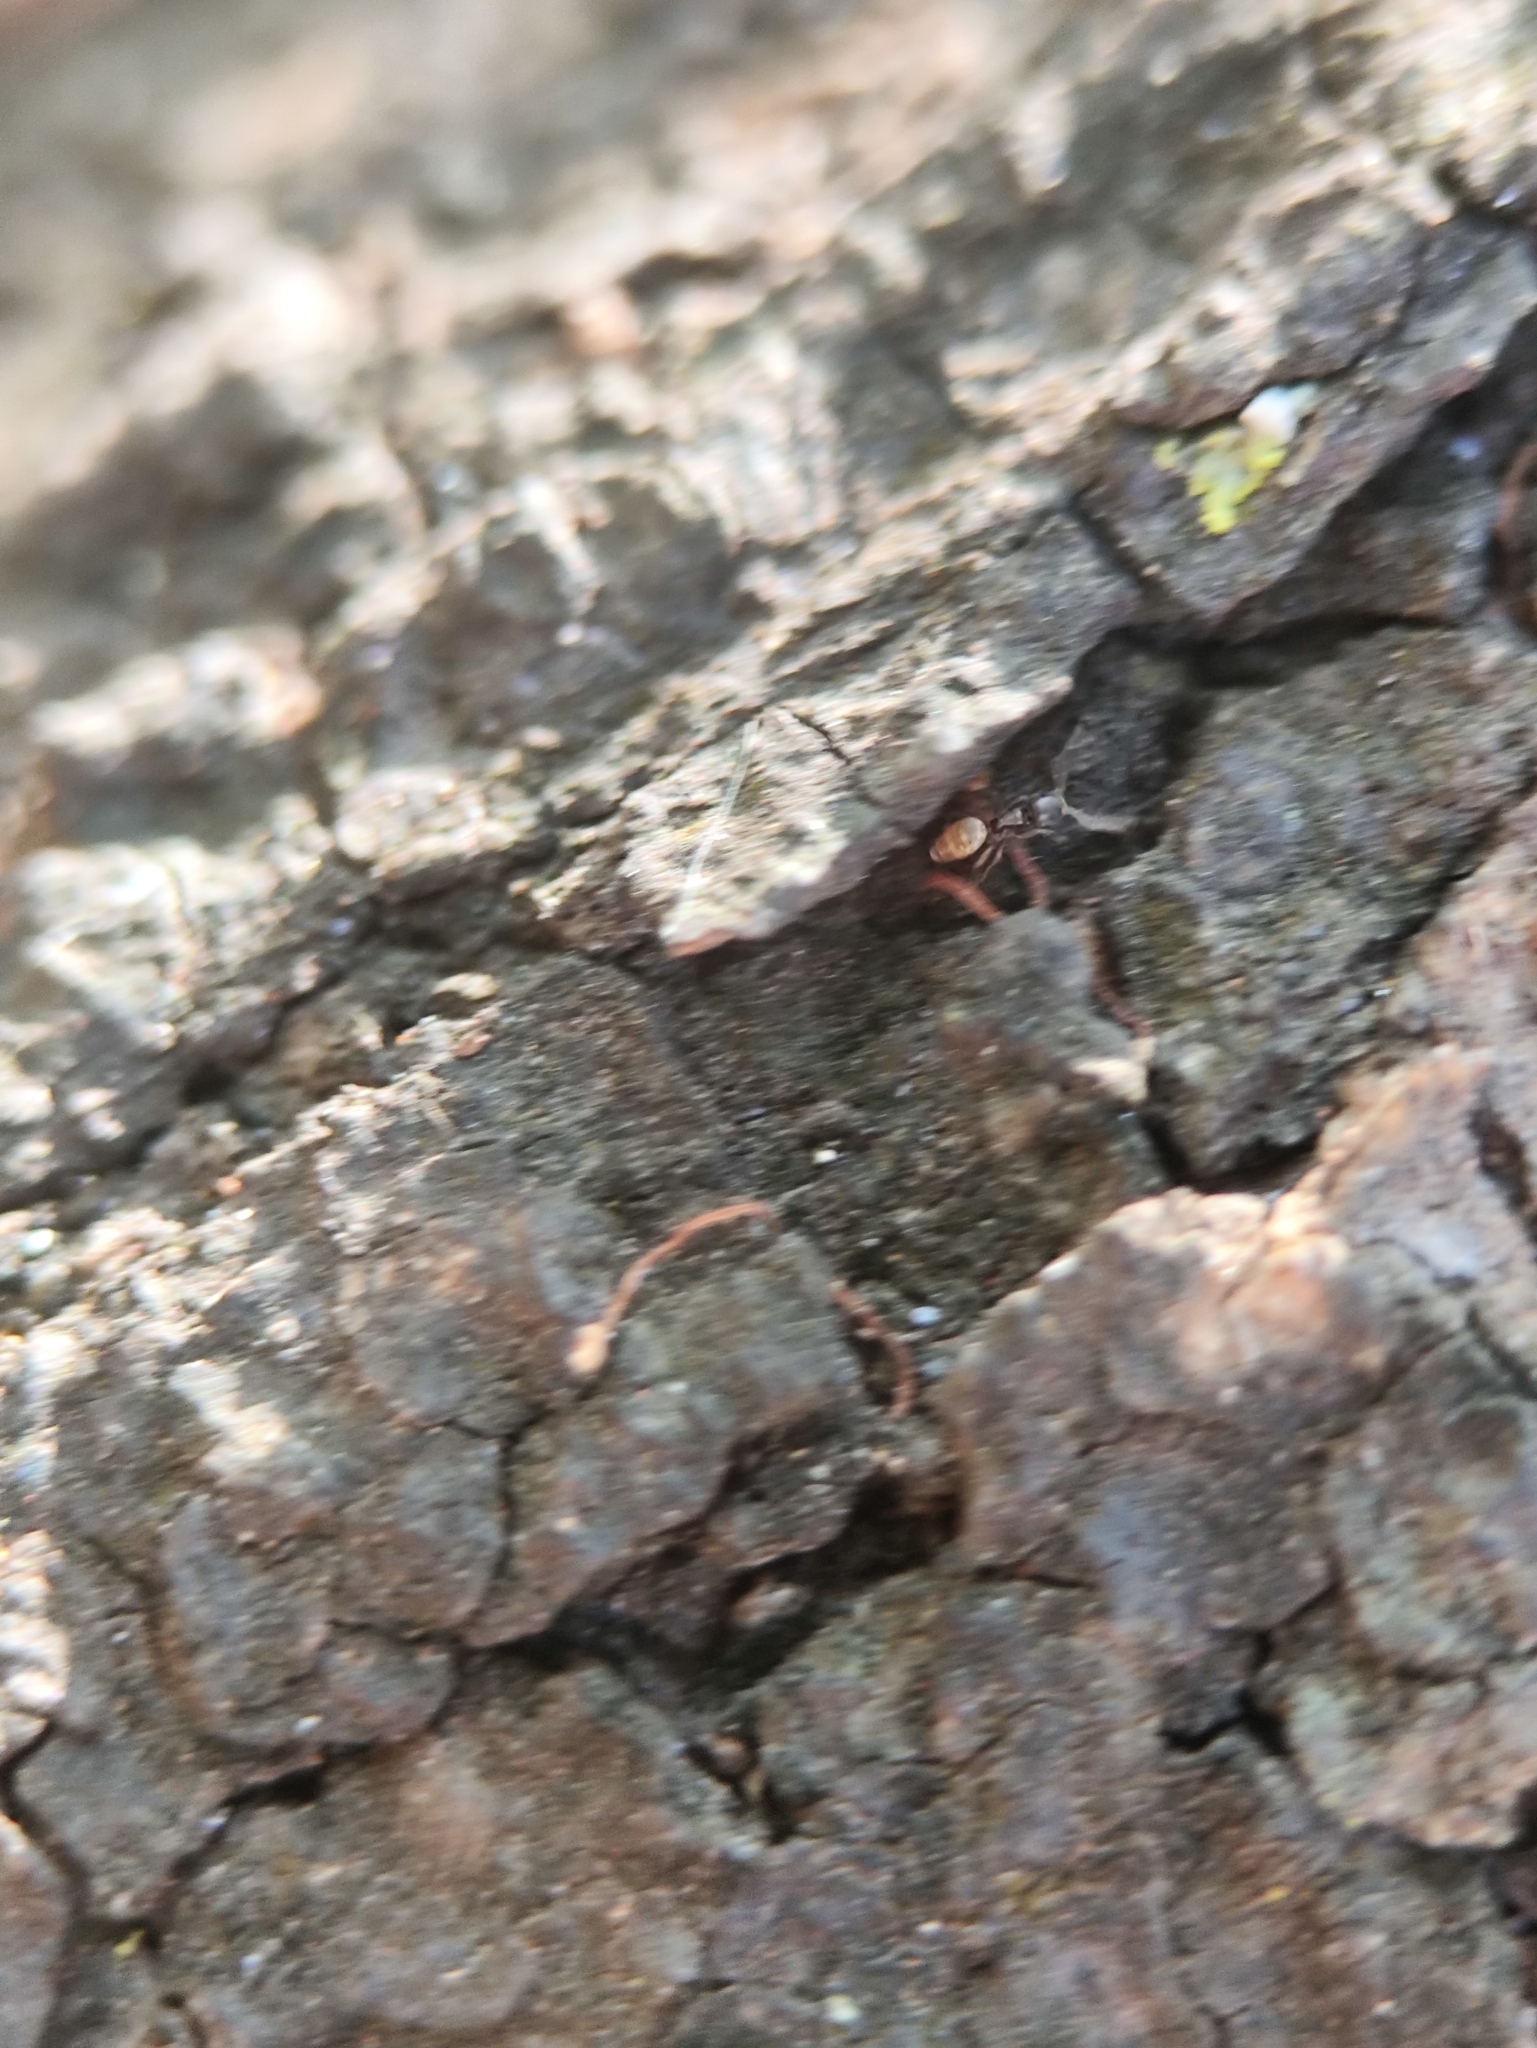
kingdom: Animalia
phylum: Arthropoda
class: Insecta
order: Hymenoptera
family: Formicidae
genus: Tapinoma
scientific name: Tapinoma melanocephalum
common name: Ghost ant
